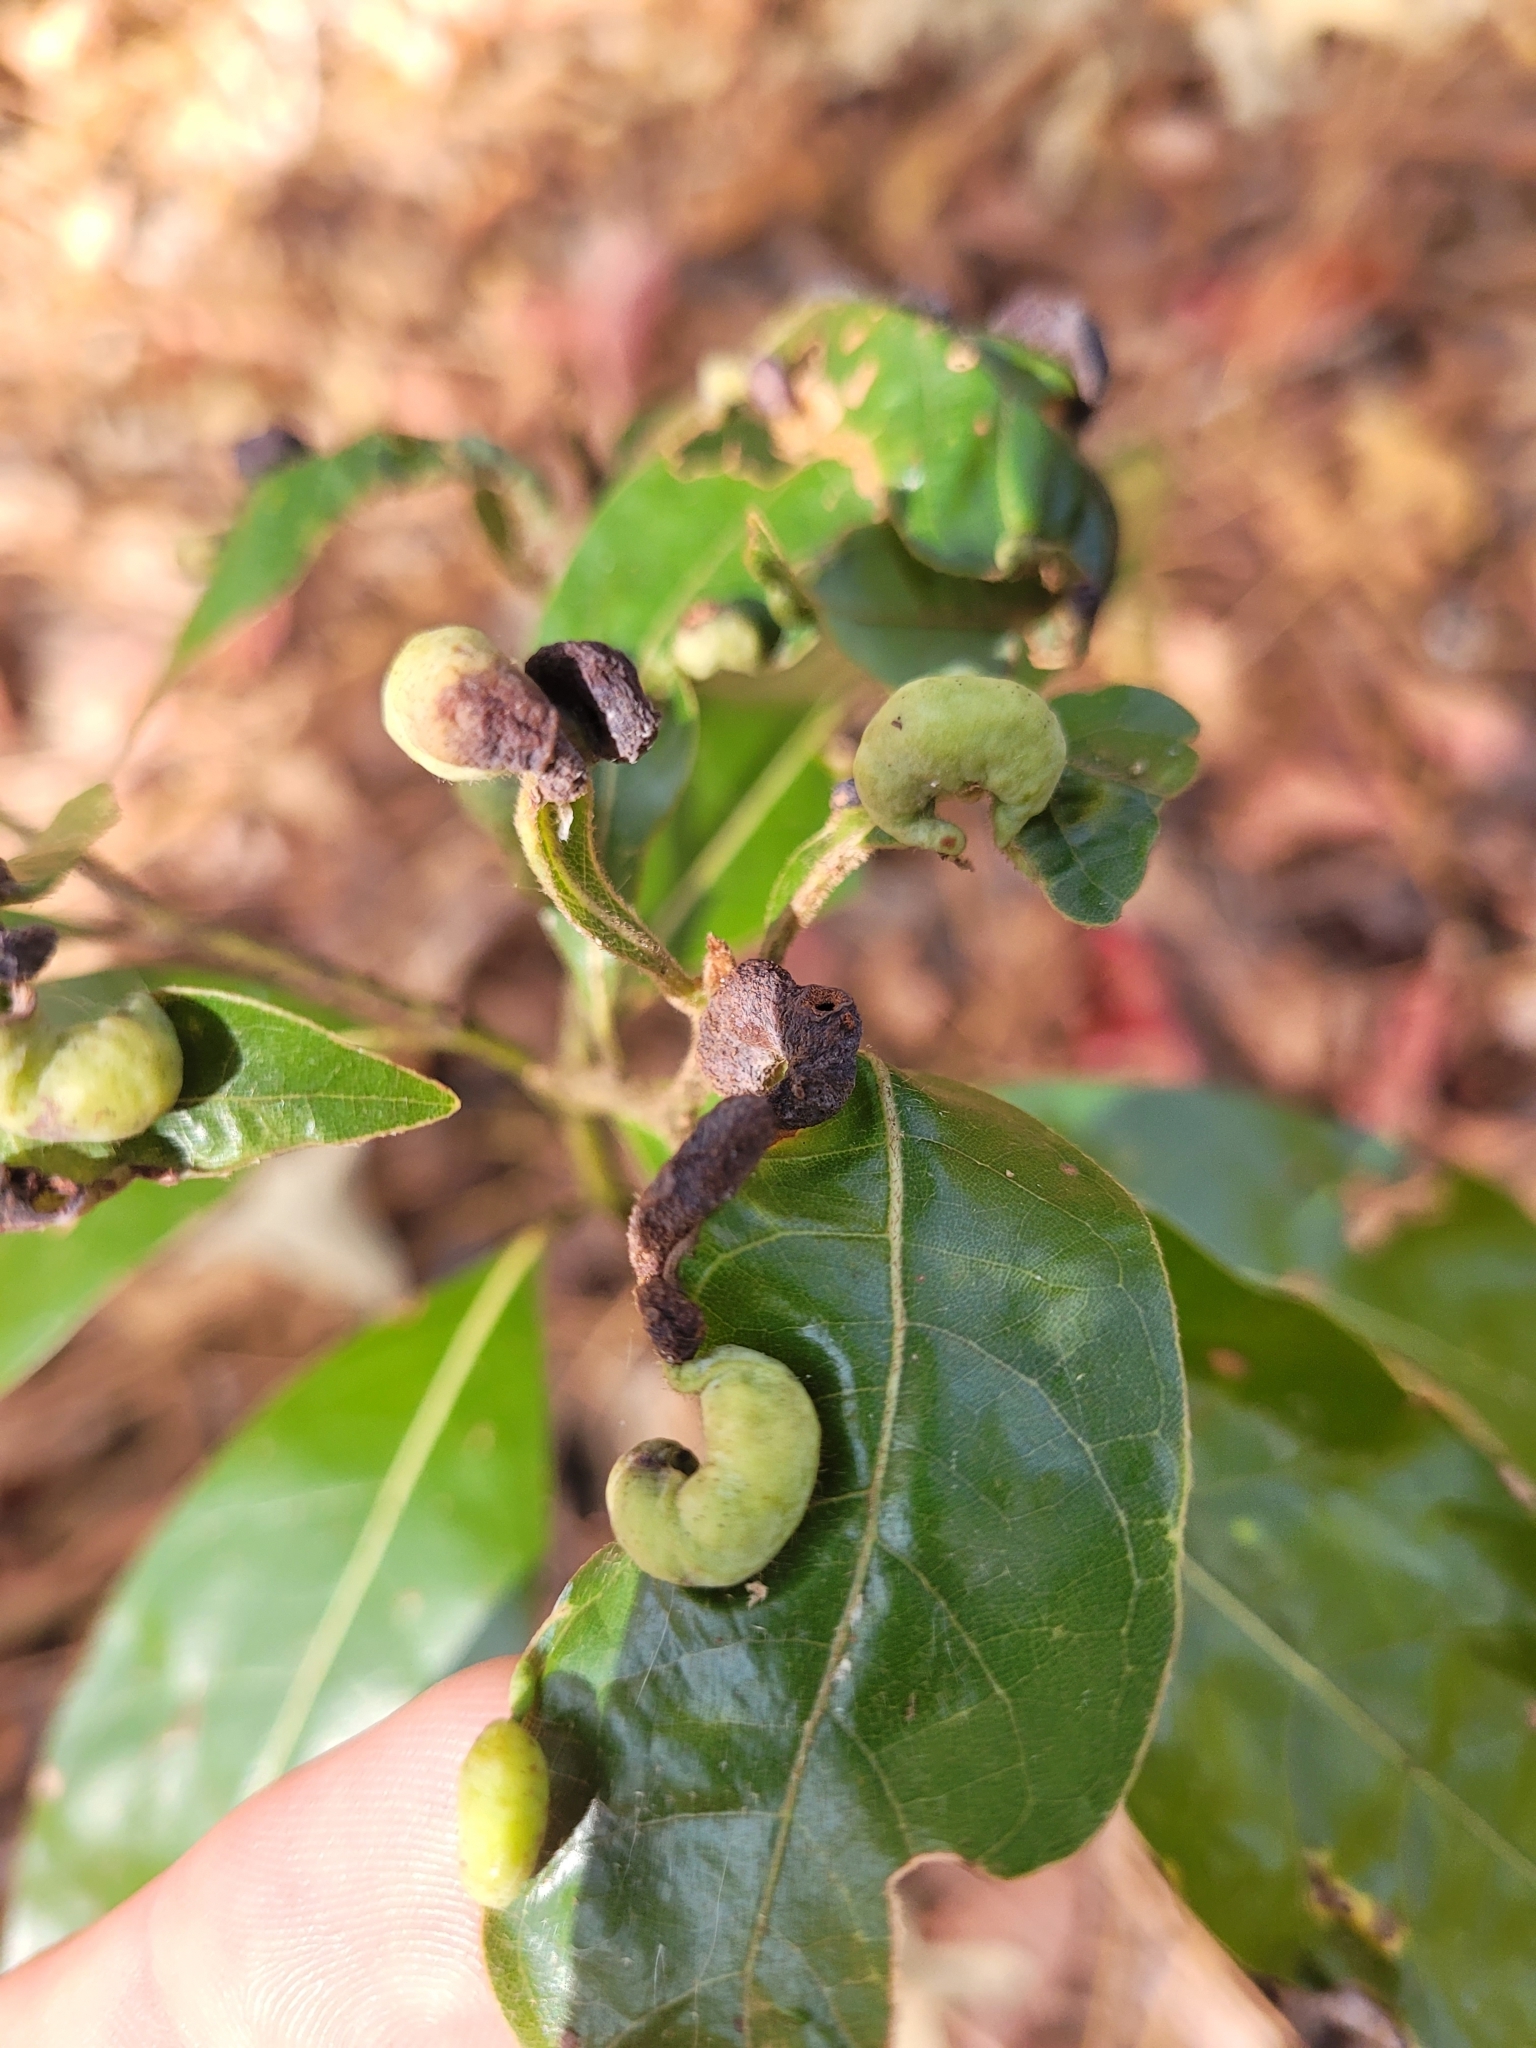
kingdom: Animalia
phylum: Arthropoda
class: Insecta
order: Hemiptera
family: Triozidae
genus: Trioza
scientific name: Trioza magnoliae
